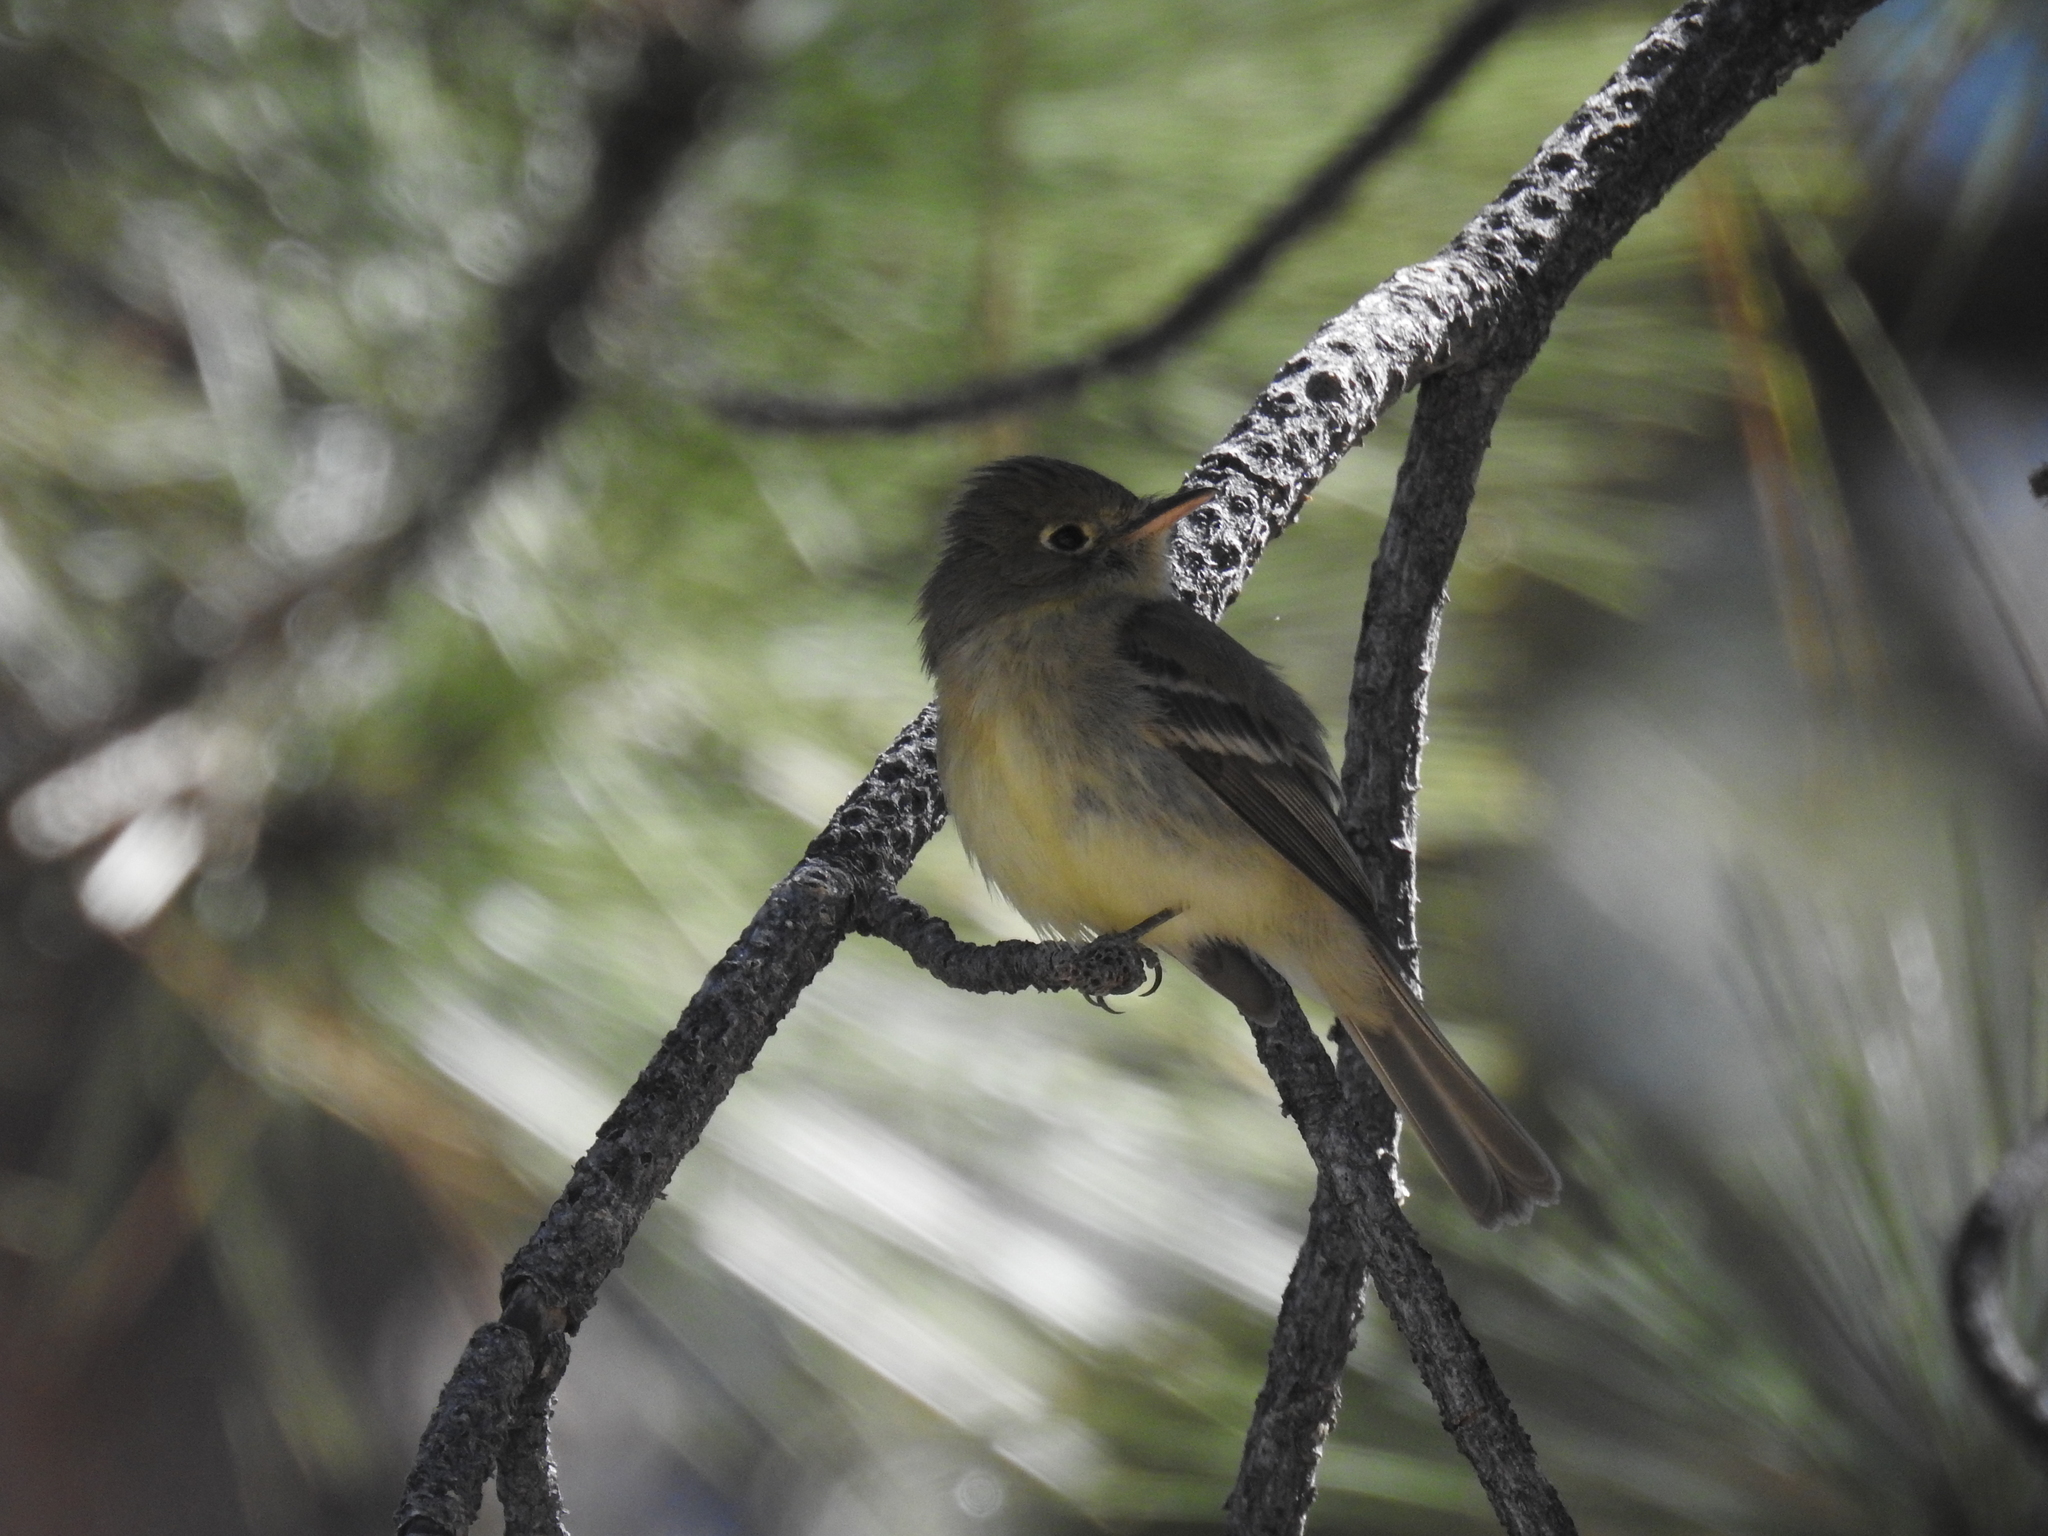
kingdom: Animalia
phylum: Chordata
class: Aves
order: Passeriformes
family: Tyrannidae
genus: Empidonax
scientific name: Empidonax difficilis
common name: Pacific-slope flycatcher
